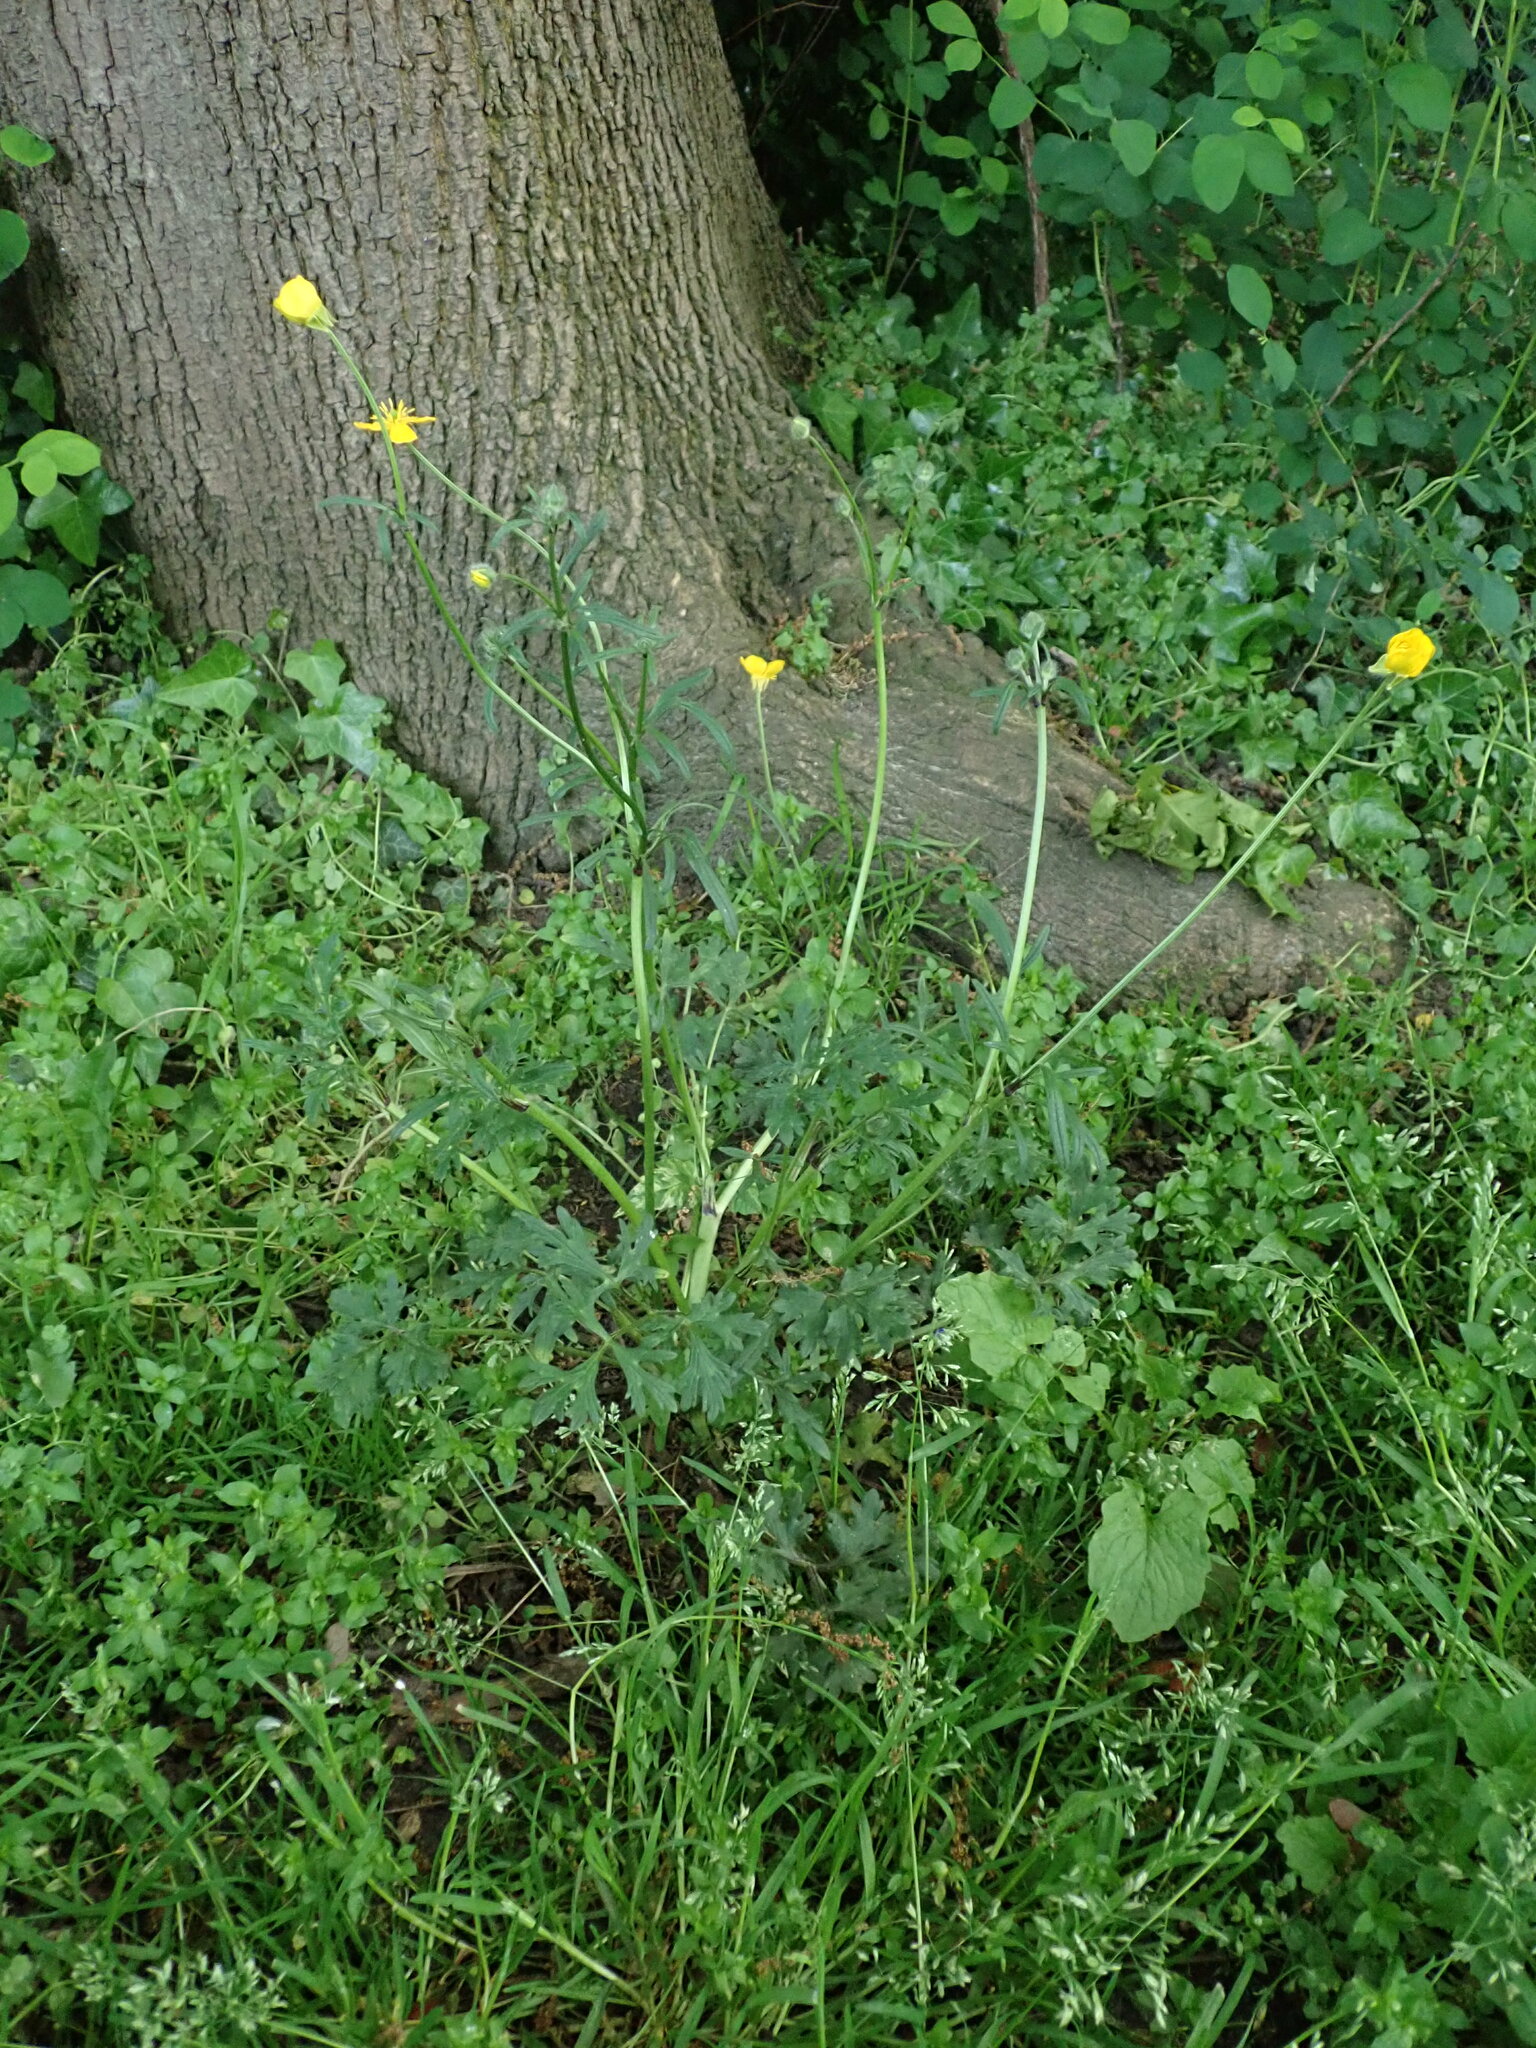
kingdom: Plantae
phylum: Tracheophyta
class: Magnoliopsida
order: Ranunculales
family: Ranunculaceae
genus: Ranunculus
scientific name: Ranunculus bulbosus
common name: Bulbous buttercup
